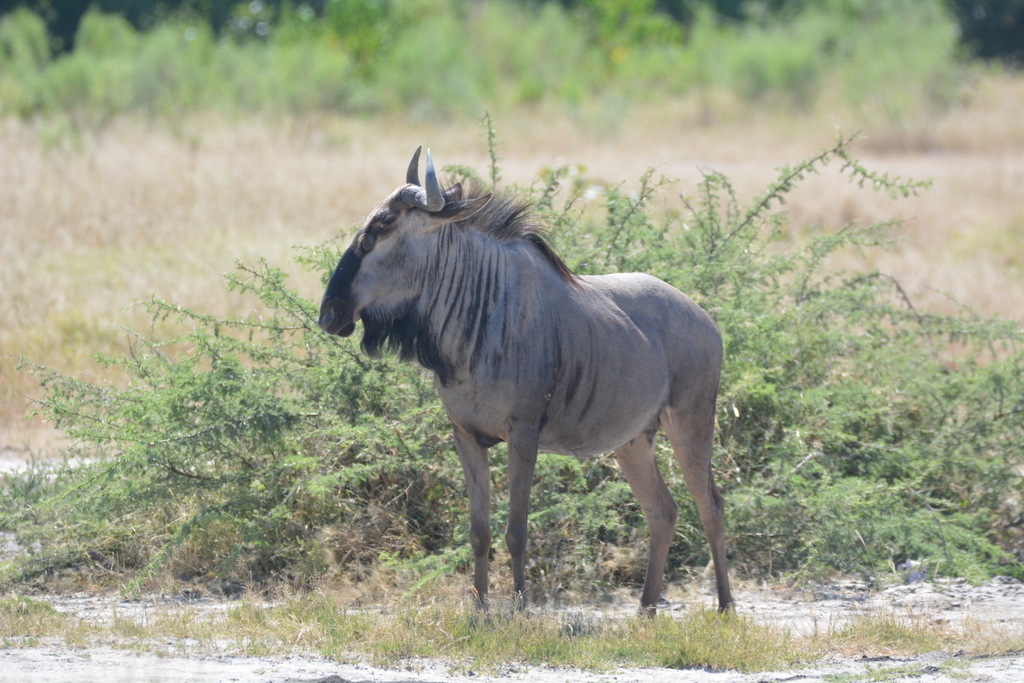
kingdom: Animalia
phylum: Chordata
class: Mammalia
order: Artiodactyla
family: Bovidae
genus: Connochaetes
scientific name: Connochaetes taurinus
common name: Blue wildebeest
